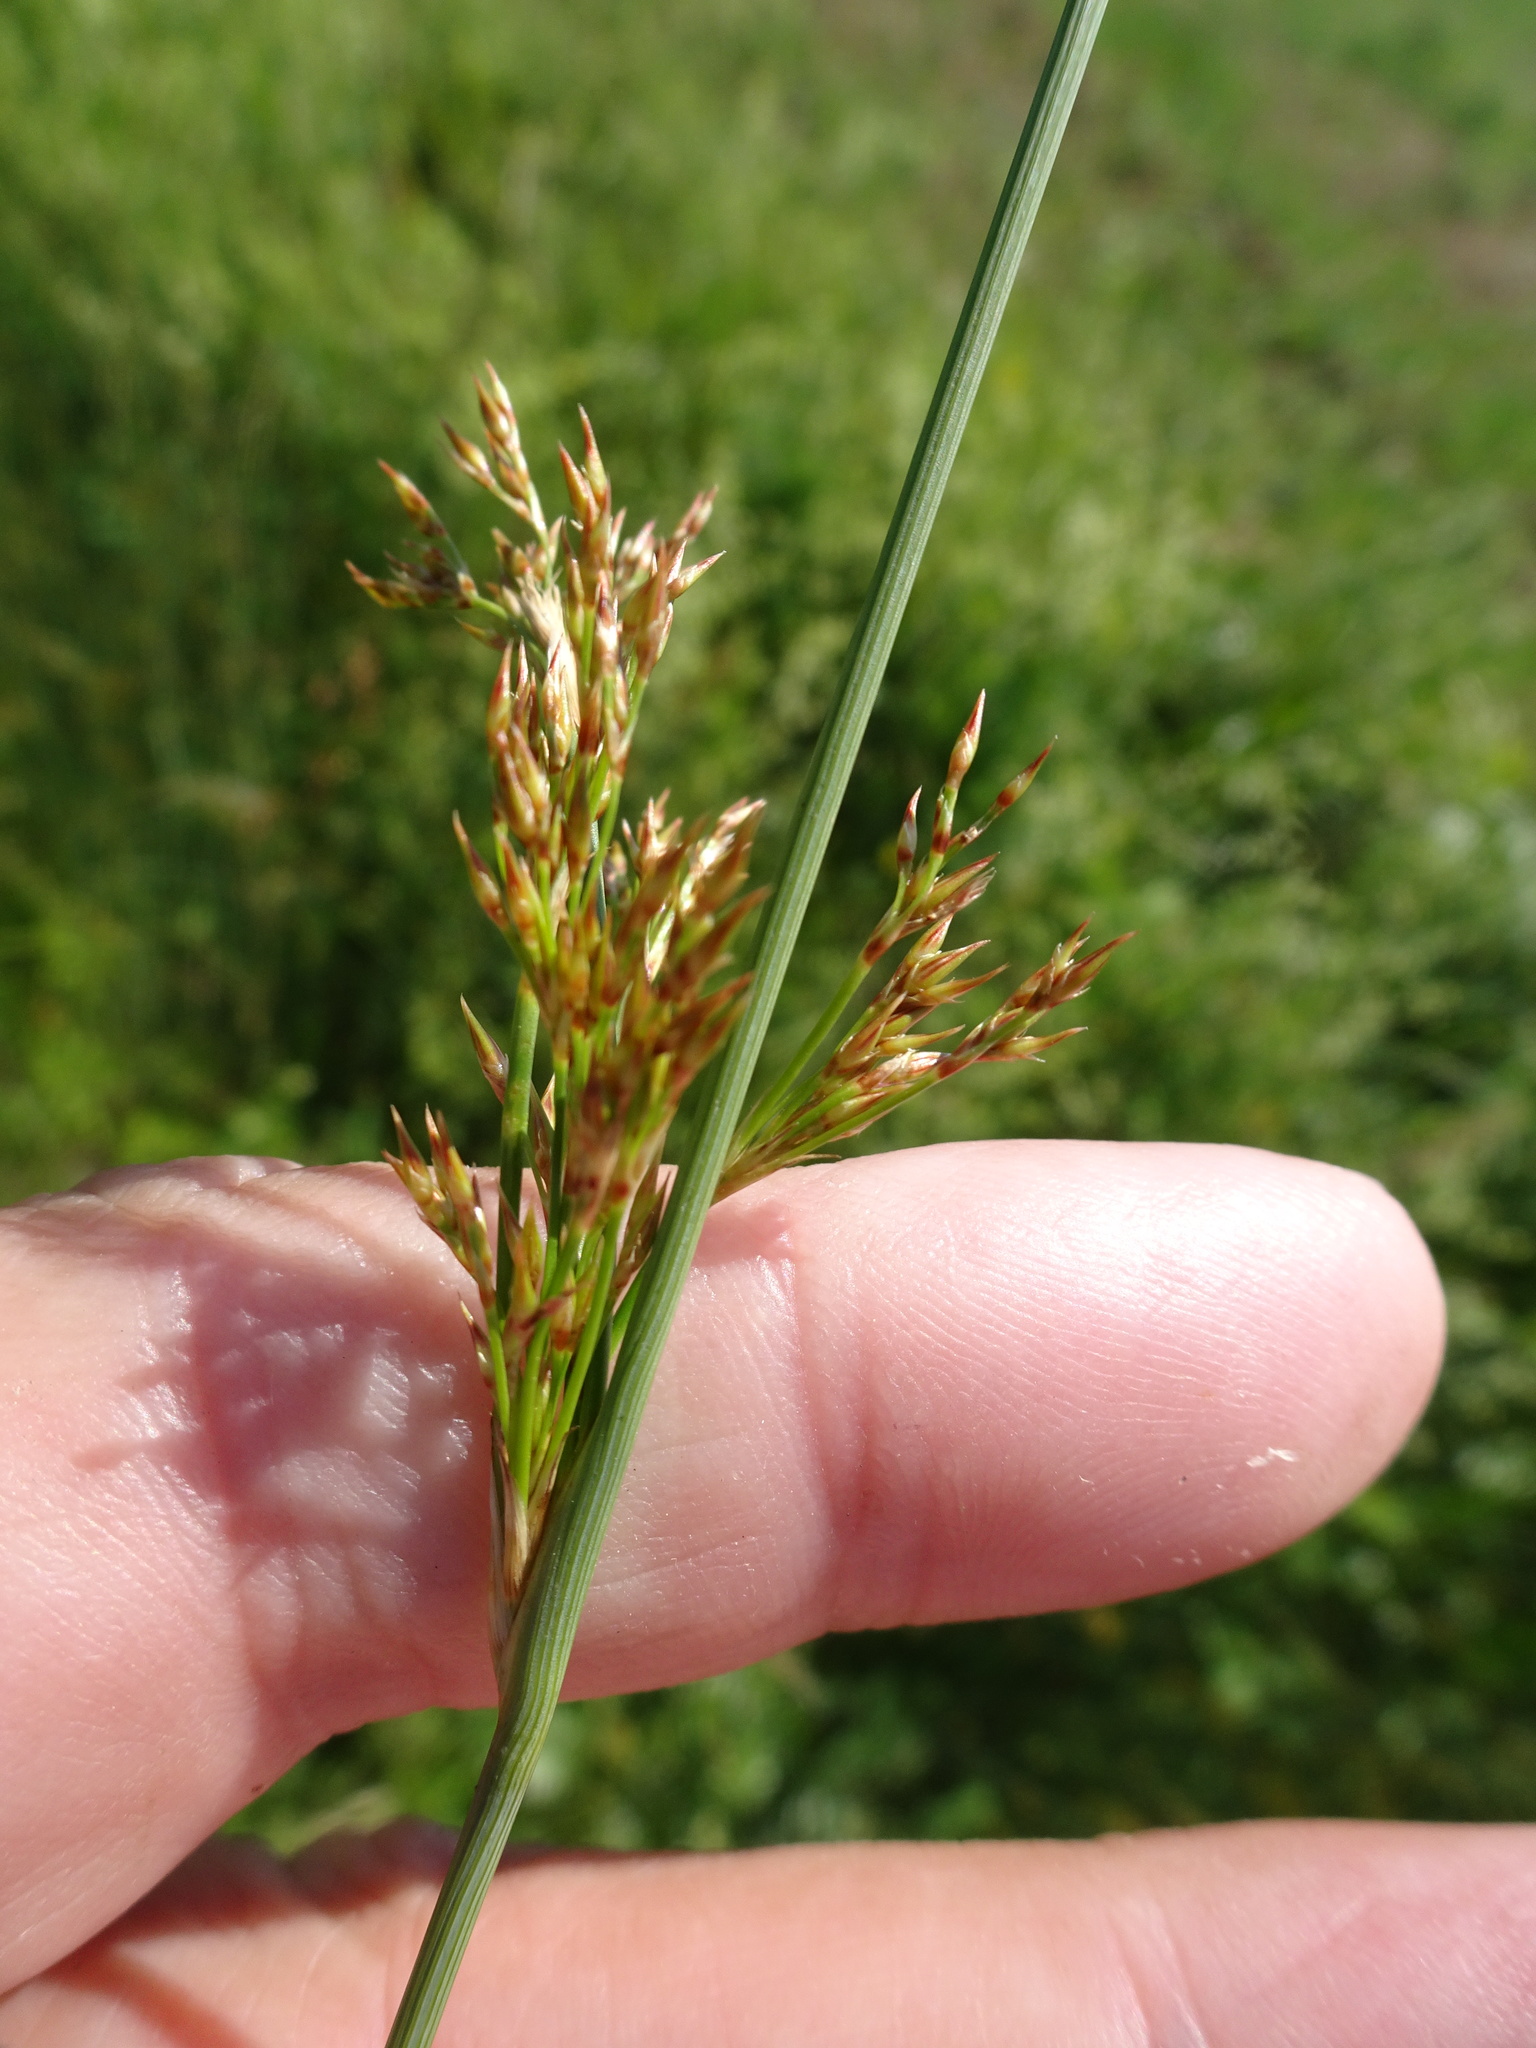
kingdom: Plantae
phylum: Tracheophyta
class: Liliopsida
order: Poales
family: Juncaceae
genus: Juncus
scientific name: Juncus inflexus
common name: Hard rush
